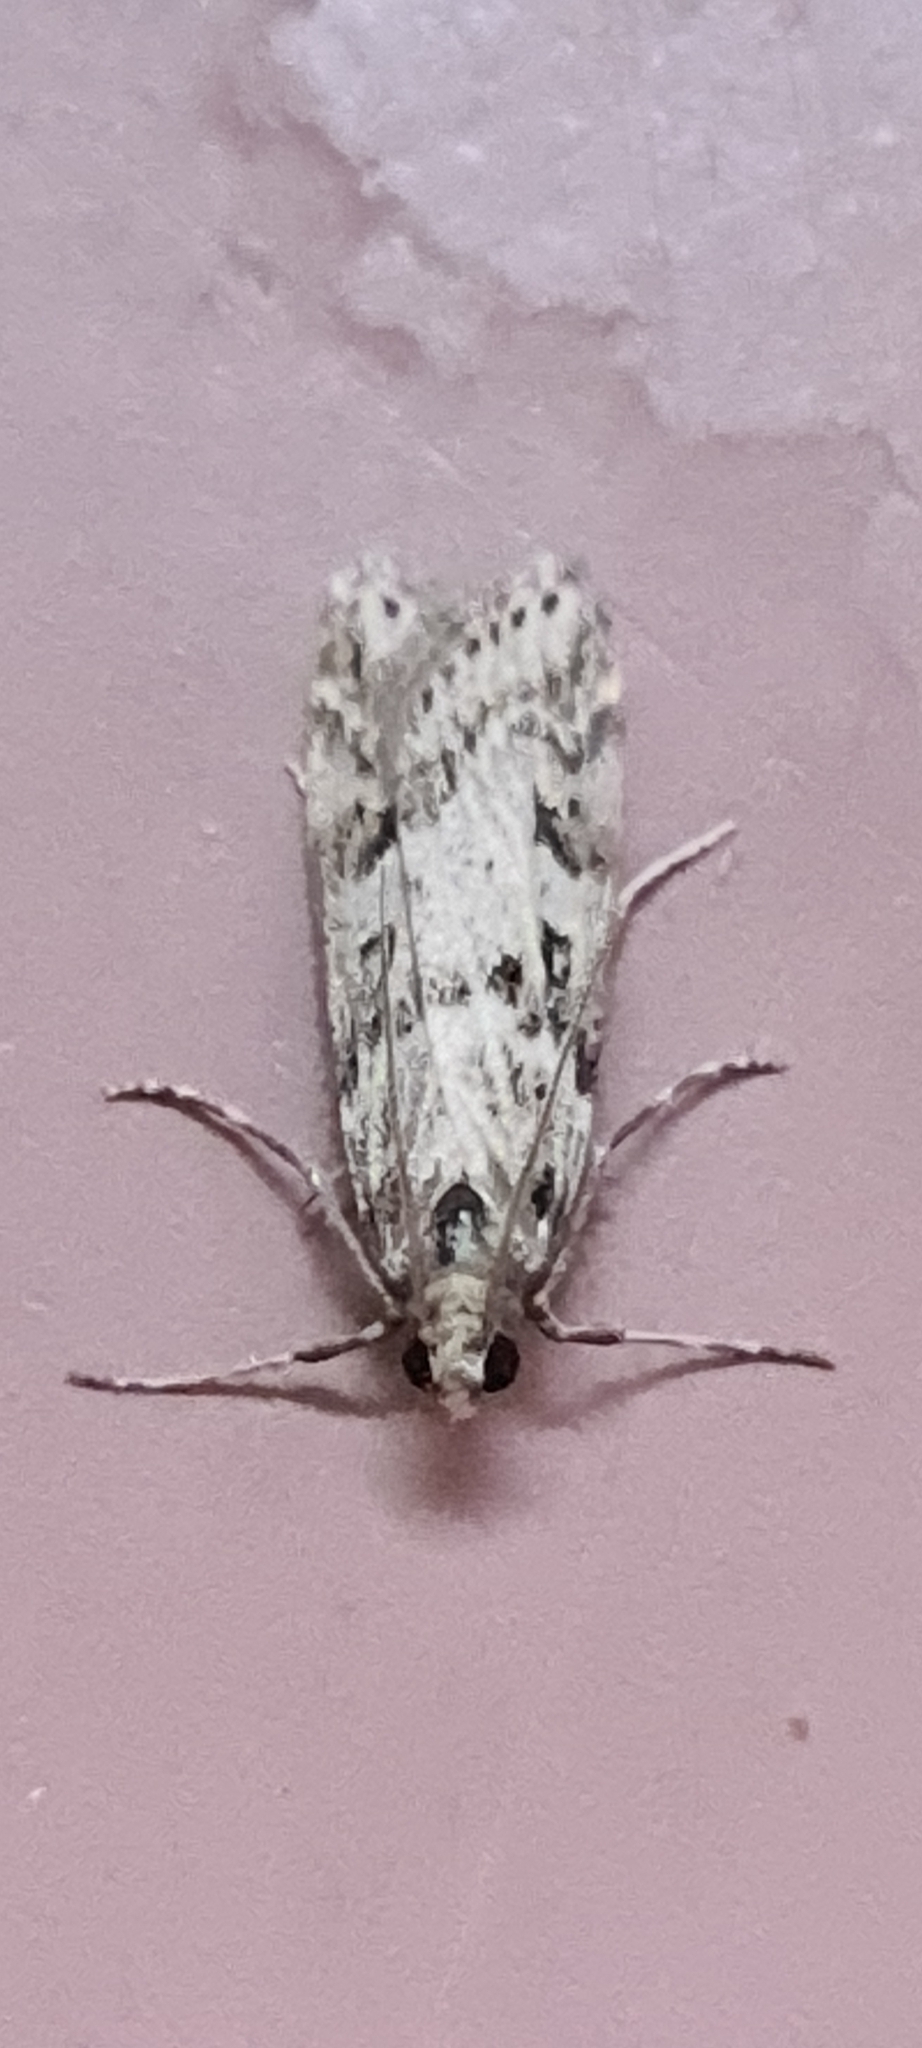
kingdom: Animalia
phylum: Arthropoda
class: Insecta
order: Lepidoptera
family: Crambidae
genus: Eudonia
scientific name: Eudonia angustea
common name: Narrow-winged grey
